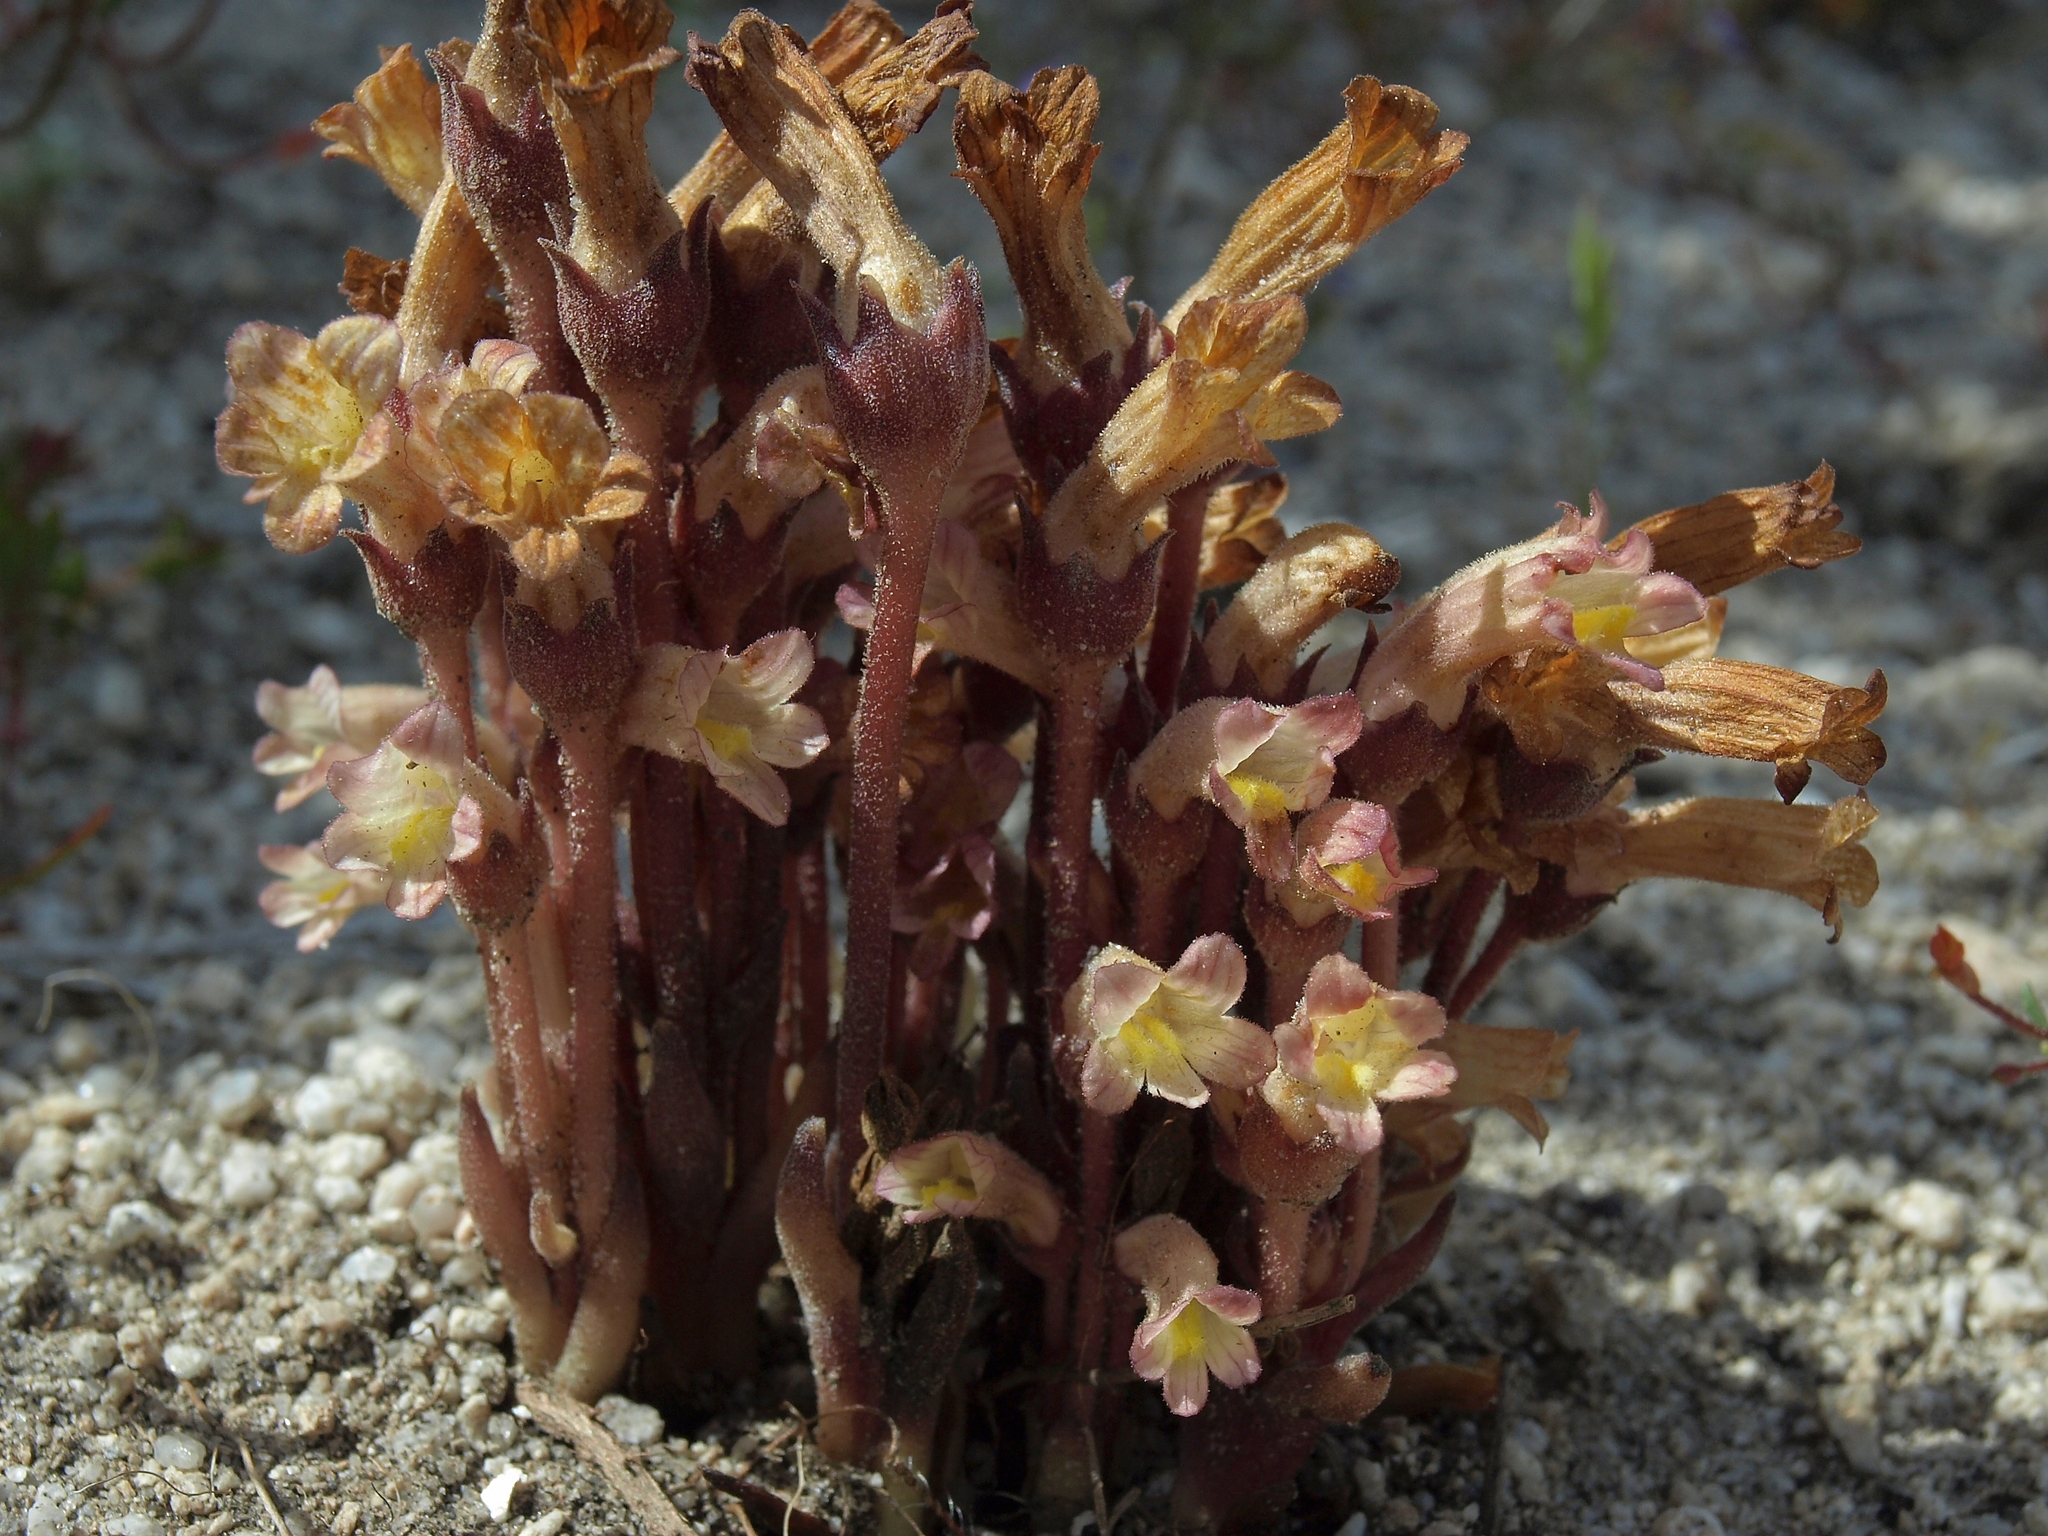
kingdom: Plantae
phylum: Tracheophyta
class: Magnoliopsida
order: Lamiales
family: Orobanchaceae
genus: Aphyllon
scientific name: Aphyllon fasciculatum
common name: Clustered broomrape
